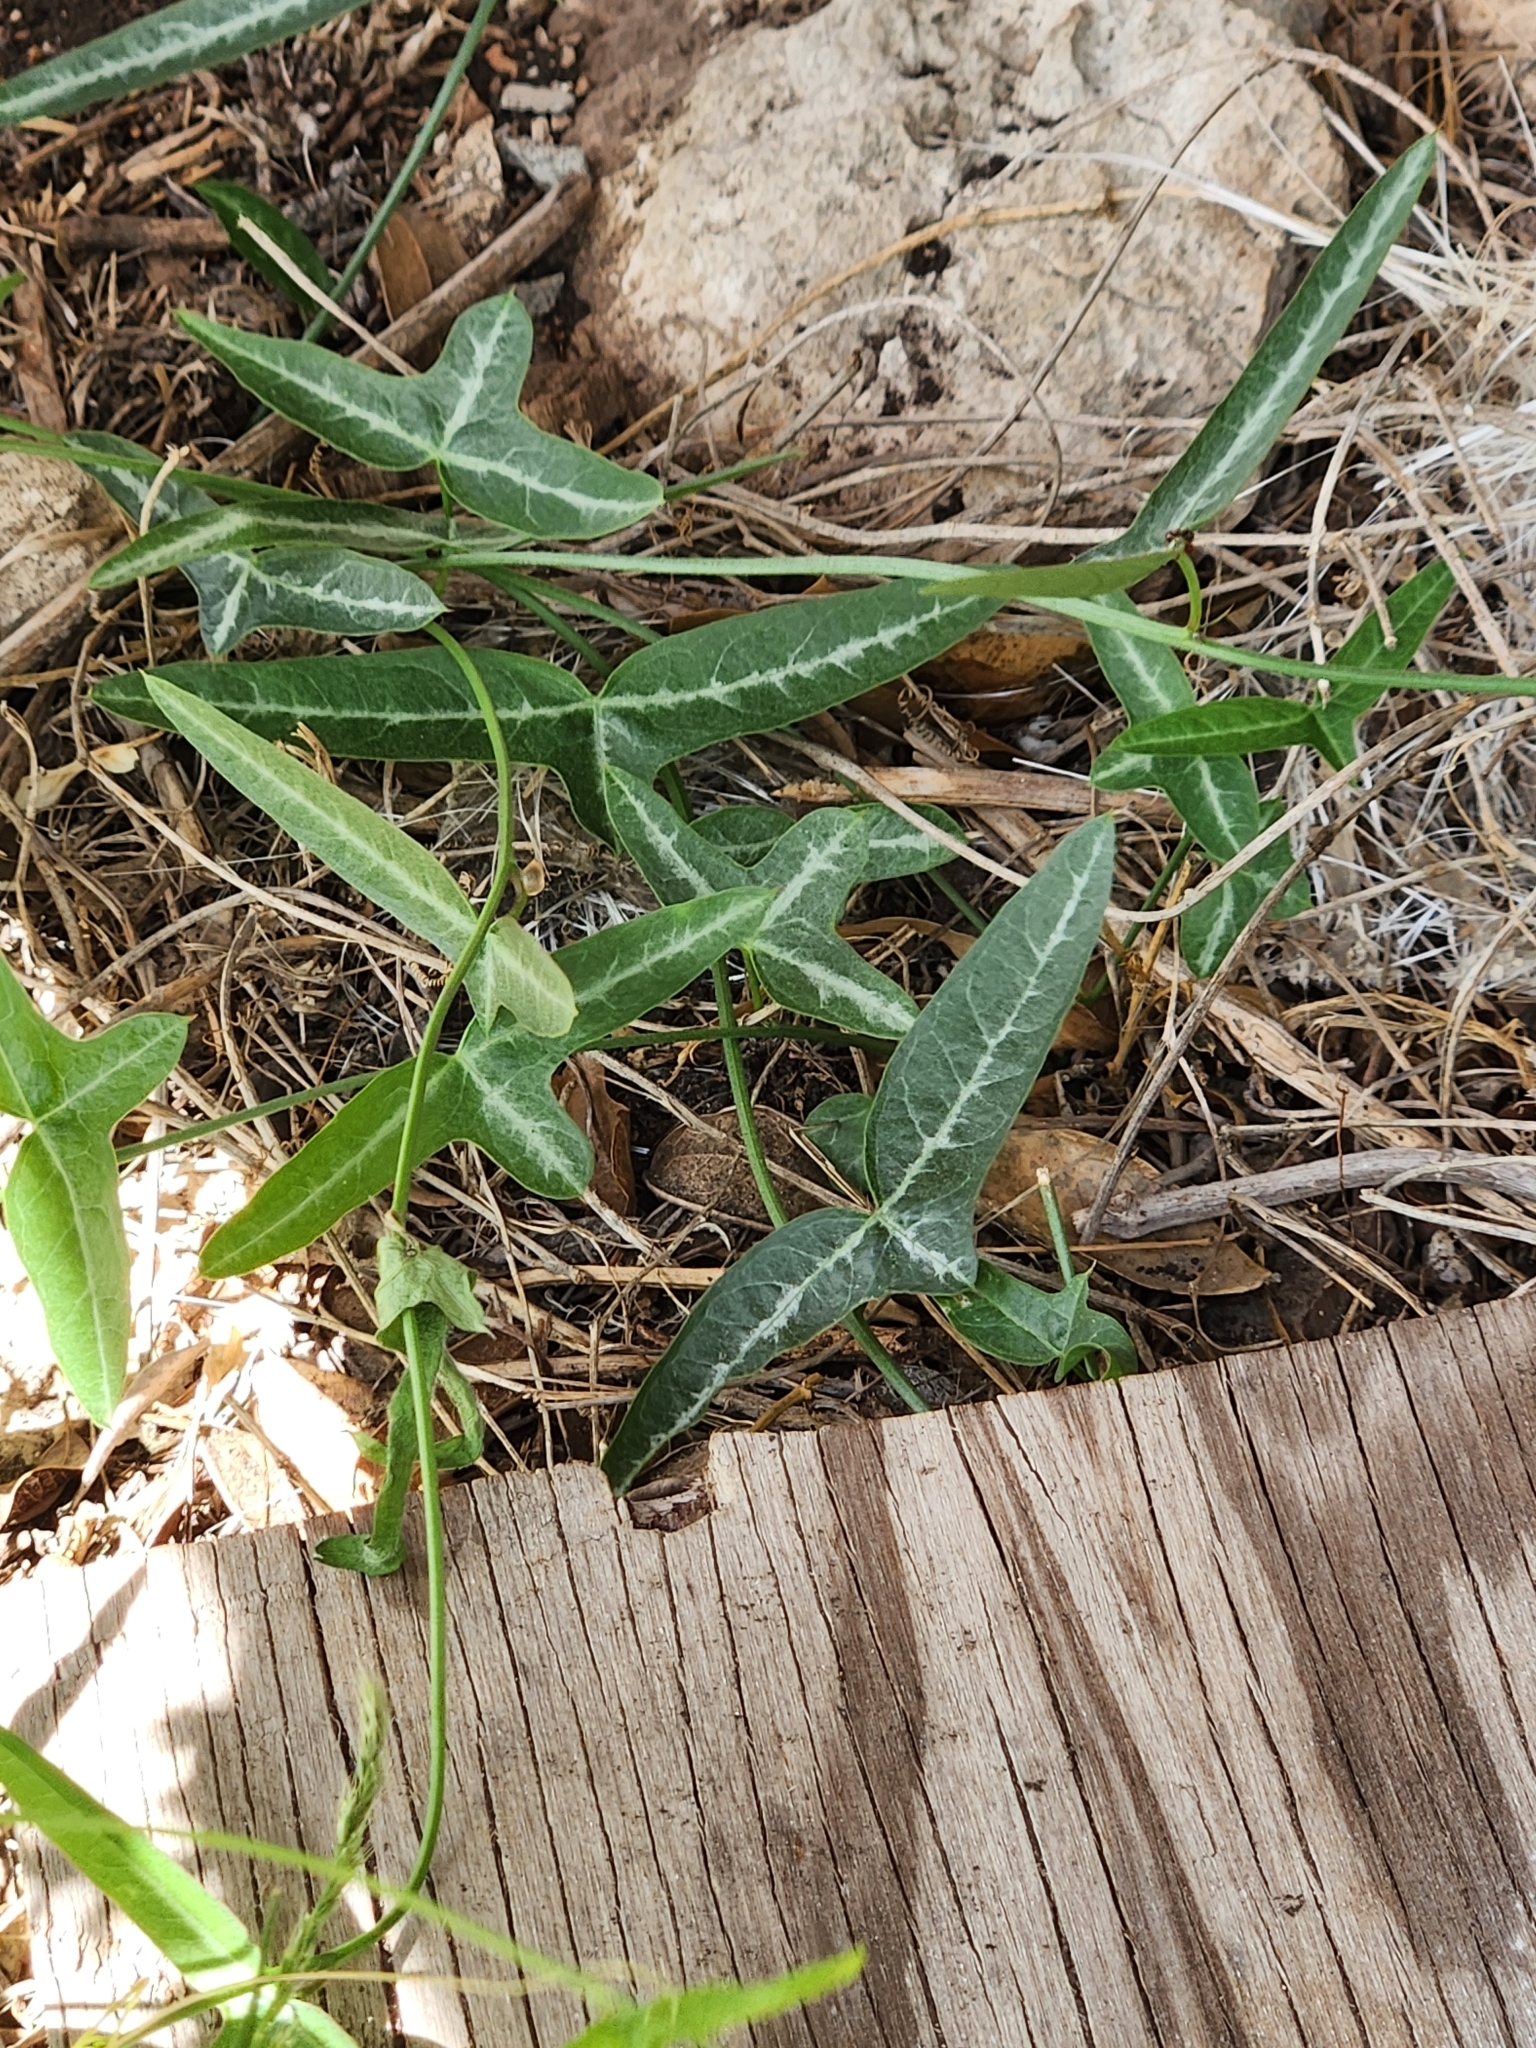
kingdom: Plantae
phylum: Tracheophyta
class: Magnoliopsida
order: Malpighiales
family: Passifloraceae
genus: Passiflora
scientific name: Passiflora tenuiloba
